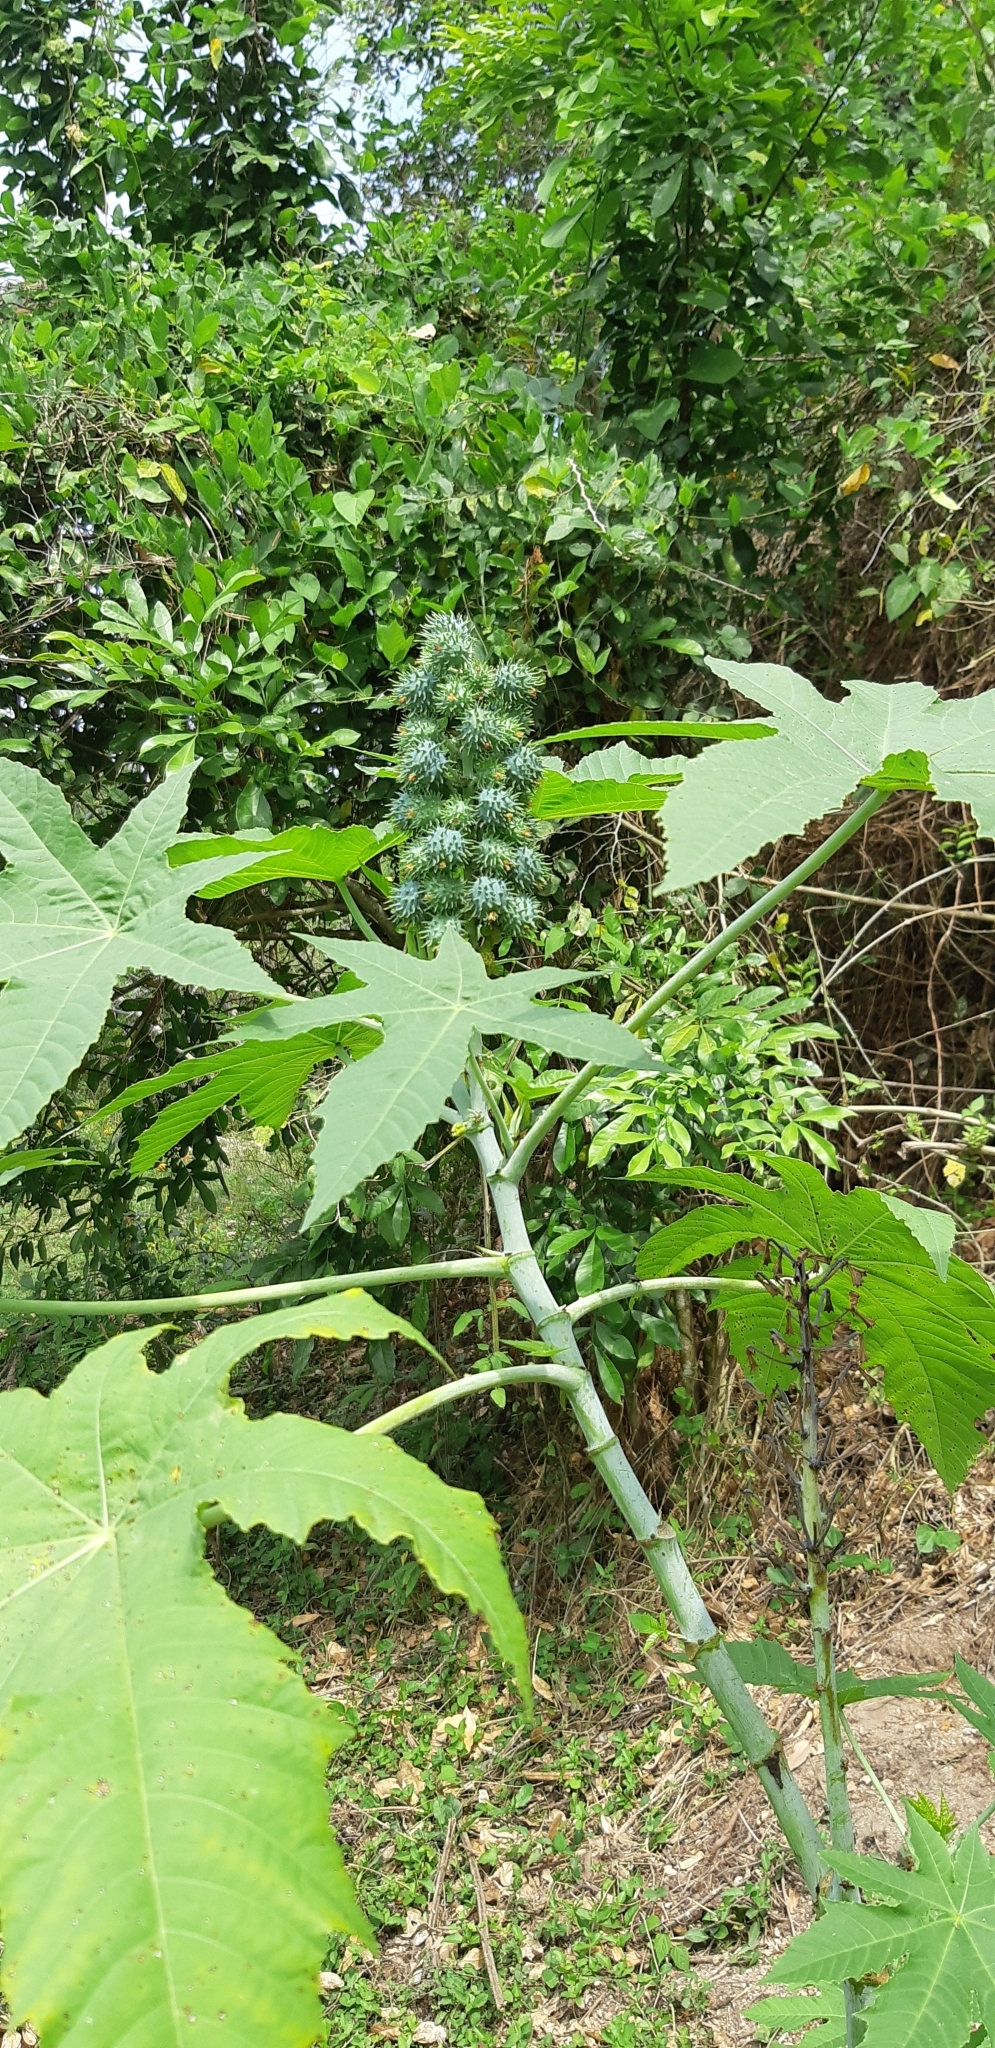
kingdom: Plantae
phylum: Tracheophyta
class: Magnoliopsida
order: Malpighiales
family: Euphorbiaceae
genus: Ricinus
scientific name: Ricinus communis
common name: Castor-oil-plant
